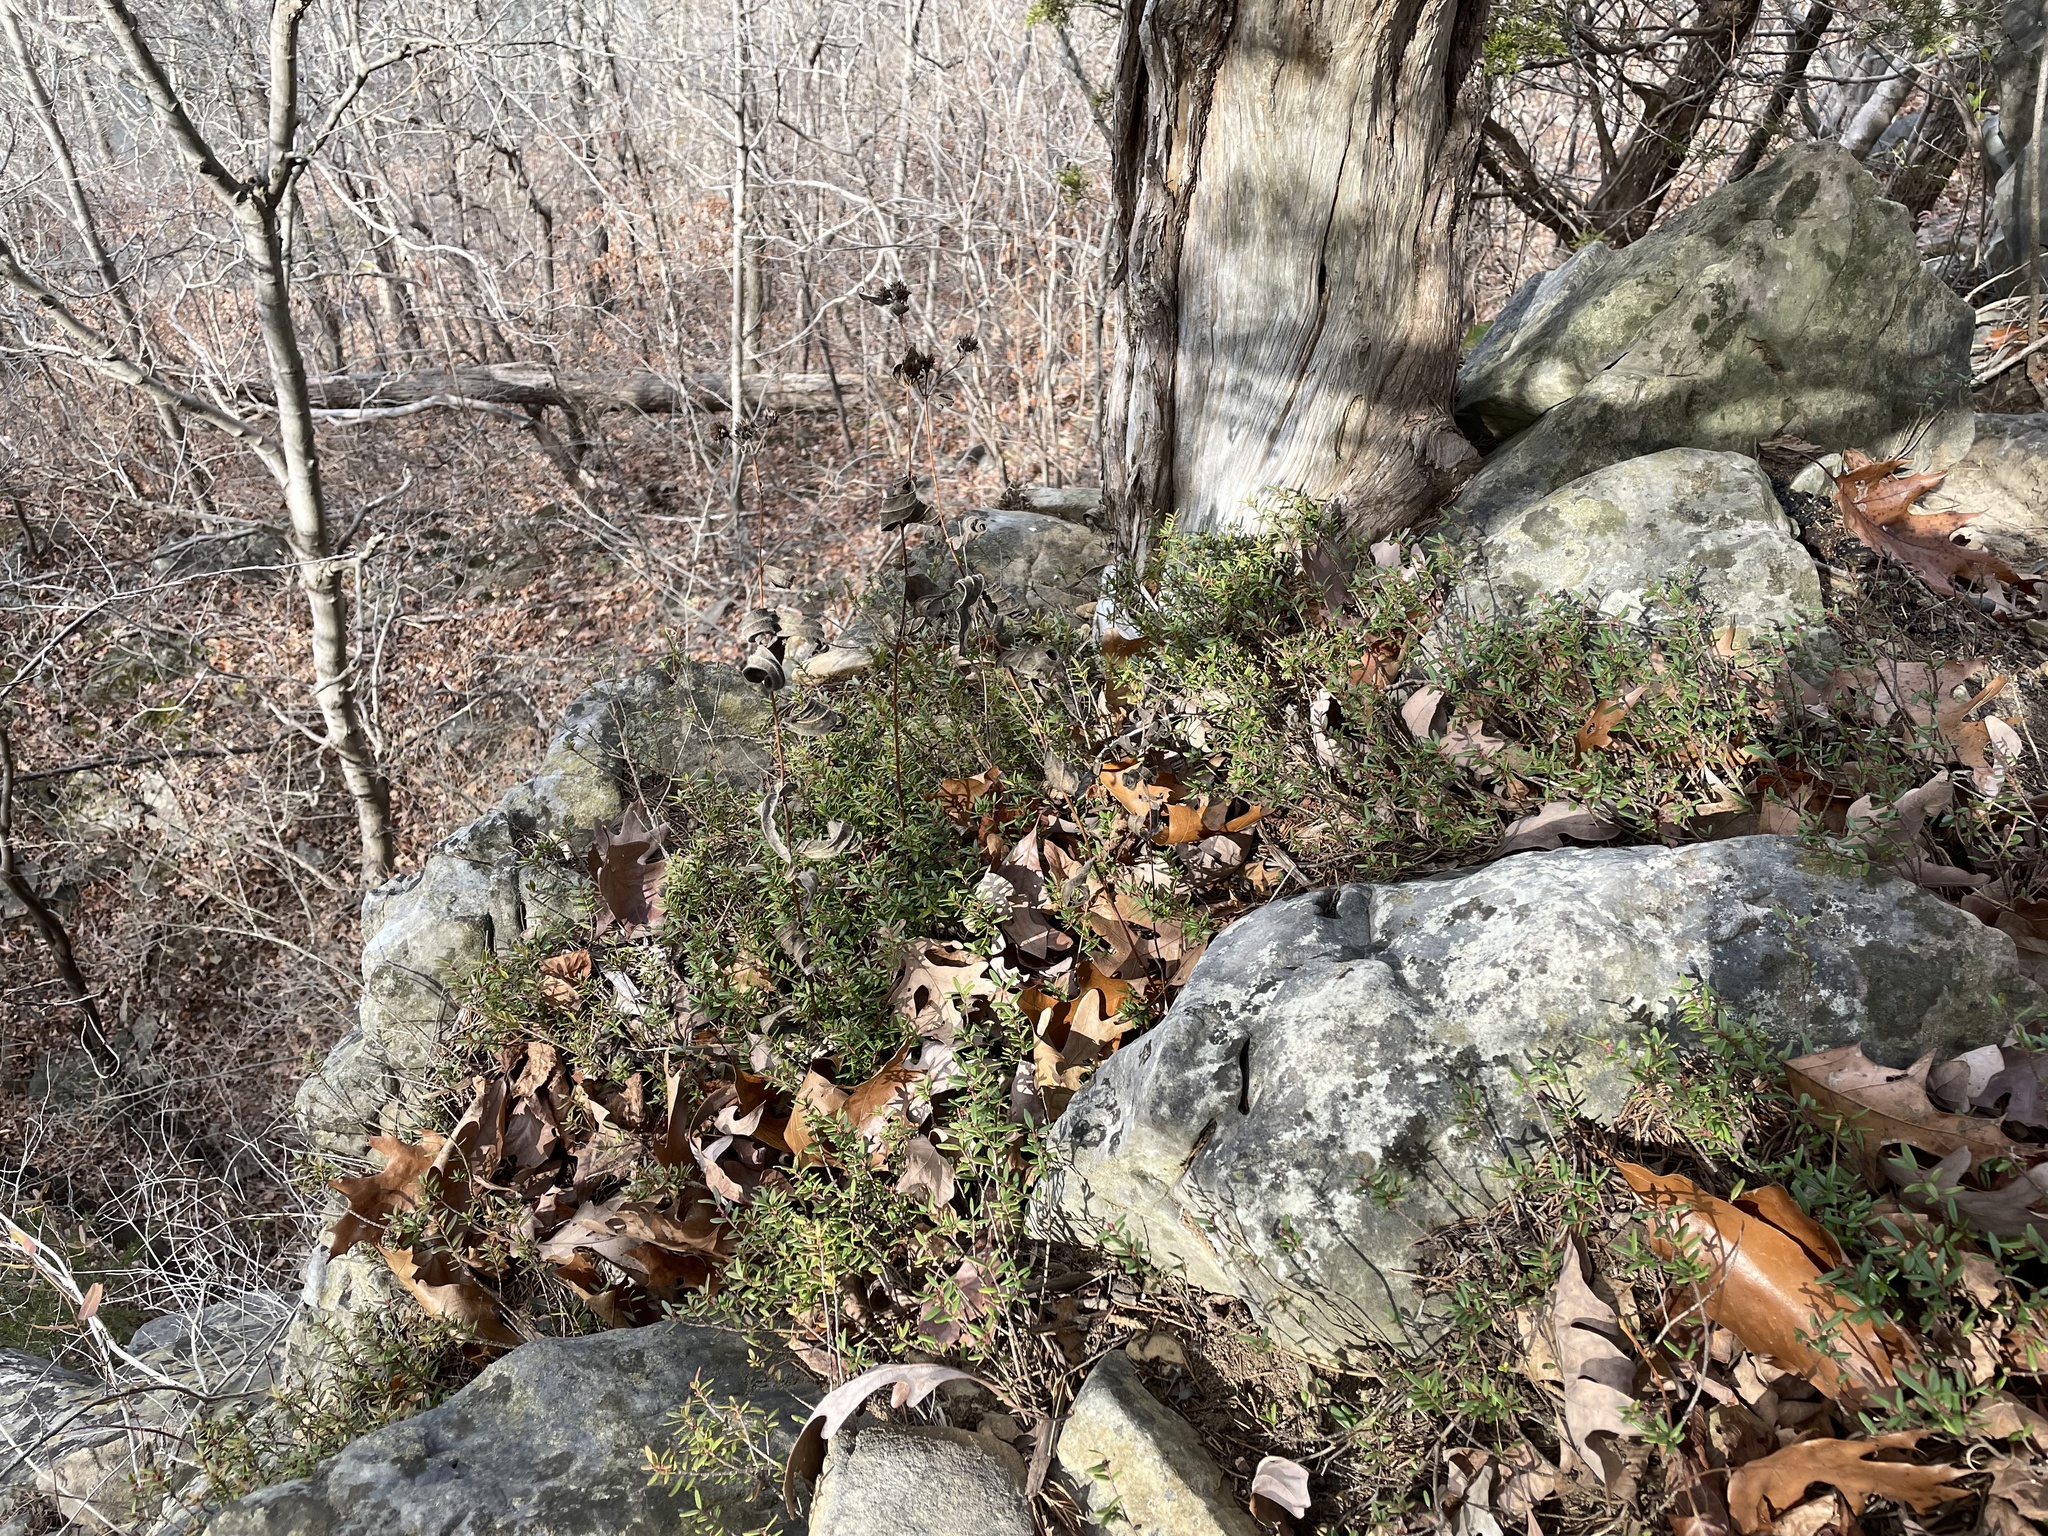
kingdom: Plantae
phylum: Tracheophyta
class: Magnoliopsida
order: Celastrales
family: Celastraceae
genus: Paxistima
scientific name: Paxistima canbyi
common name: Cliffgreen
